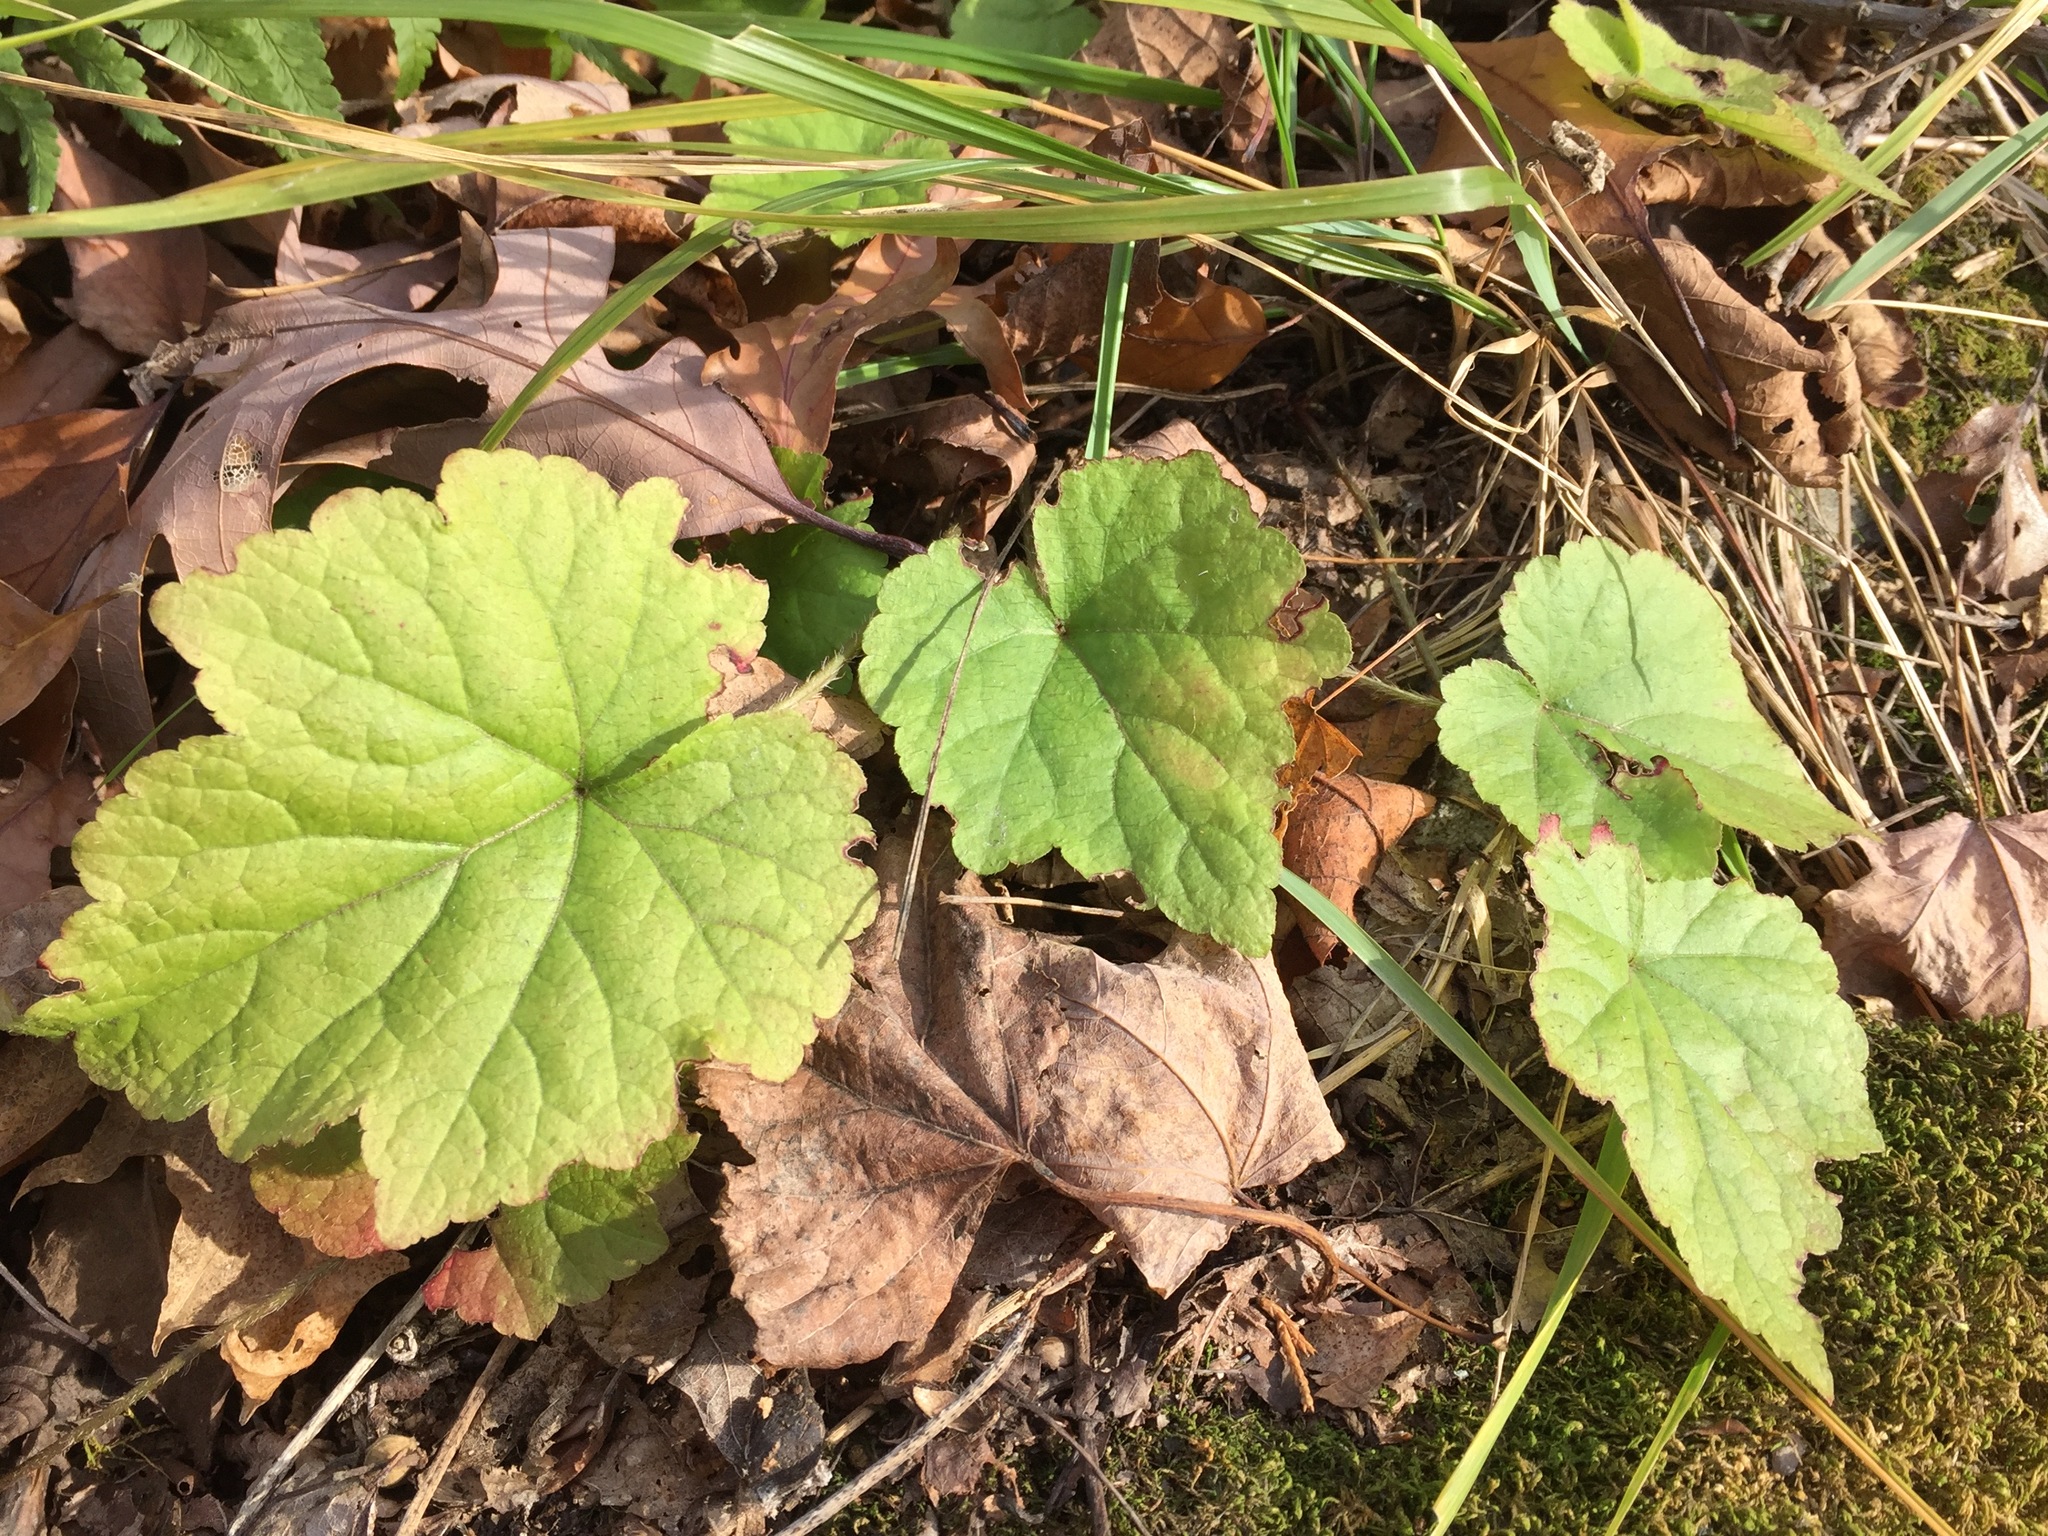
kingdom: Plantae
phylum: Tracheophyta
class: Magnoliopsida
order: Saxifragales
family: Saxifragaceae
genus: Mitella
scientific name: Mitella diphylla
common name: Coolwort
